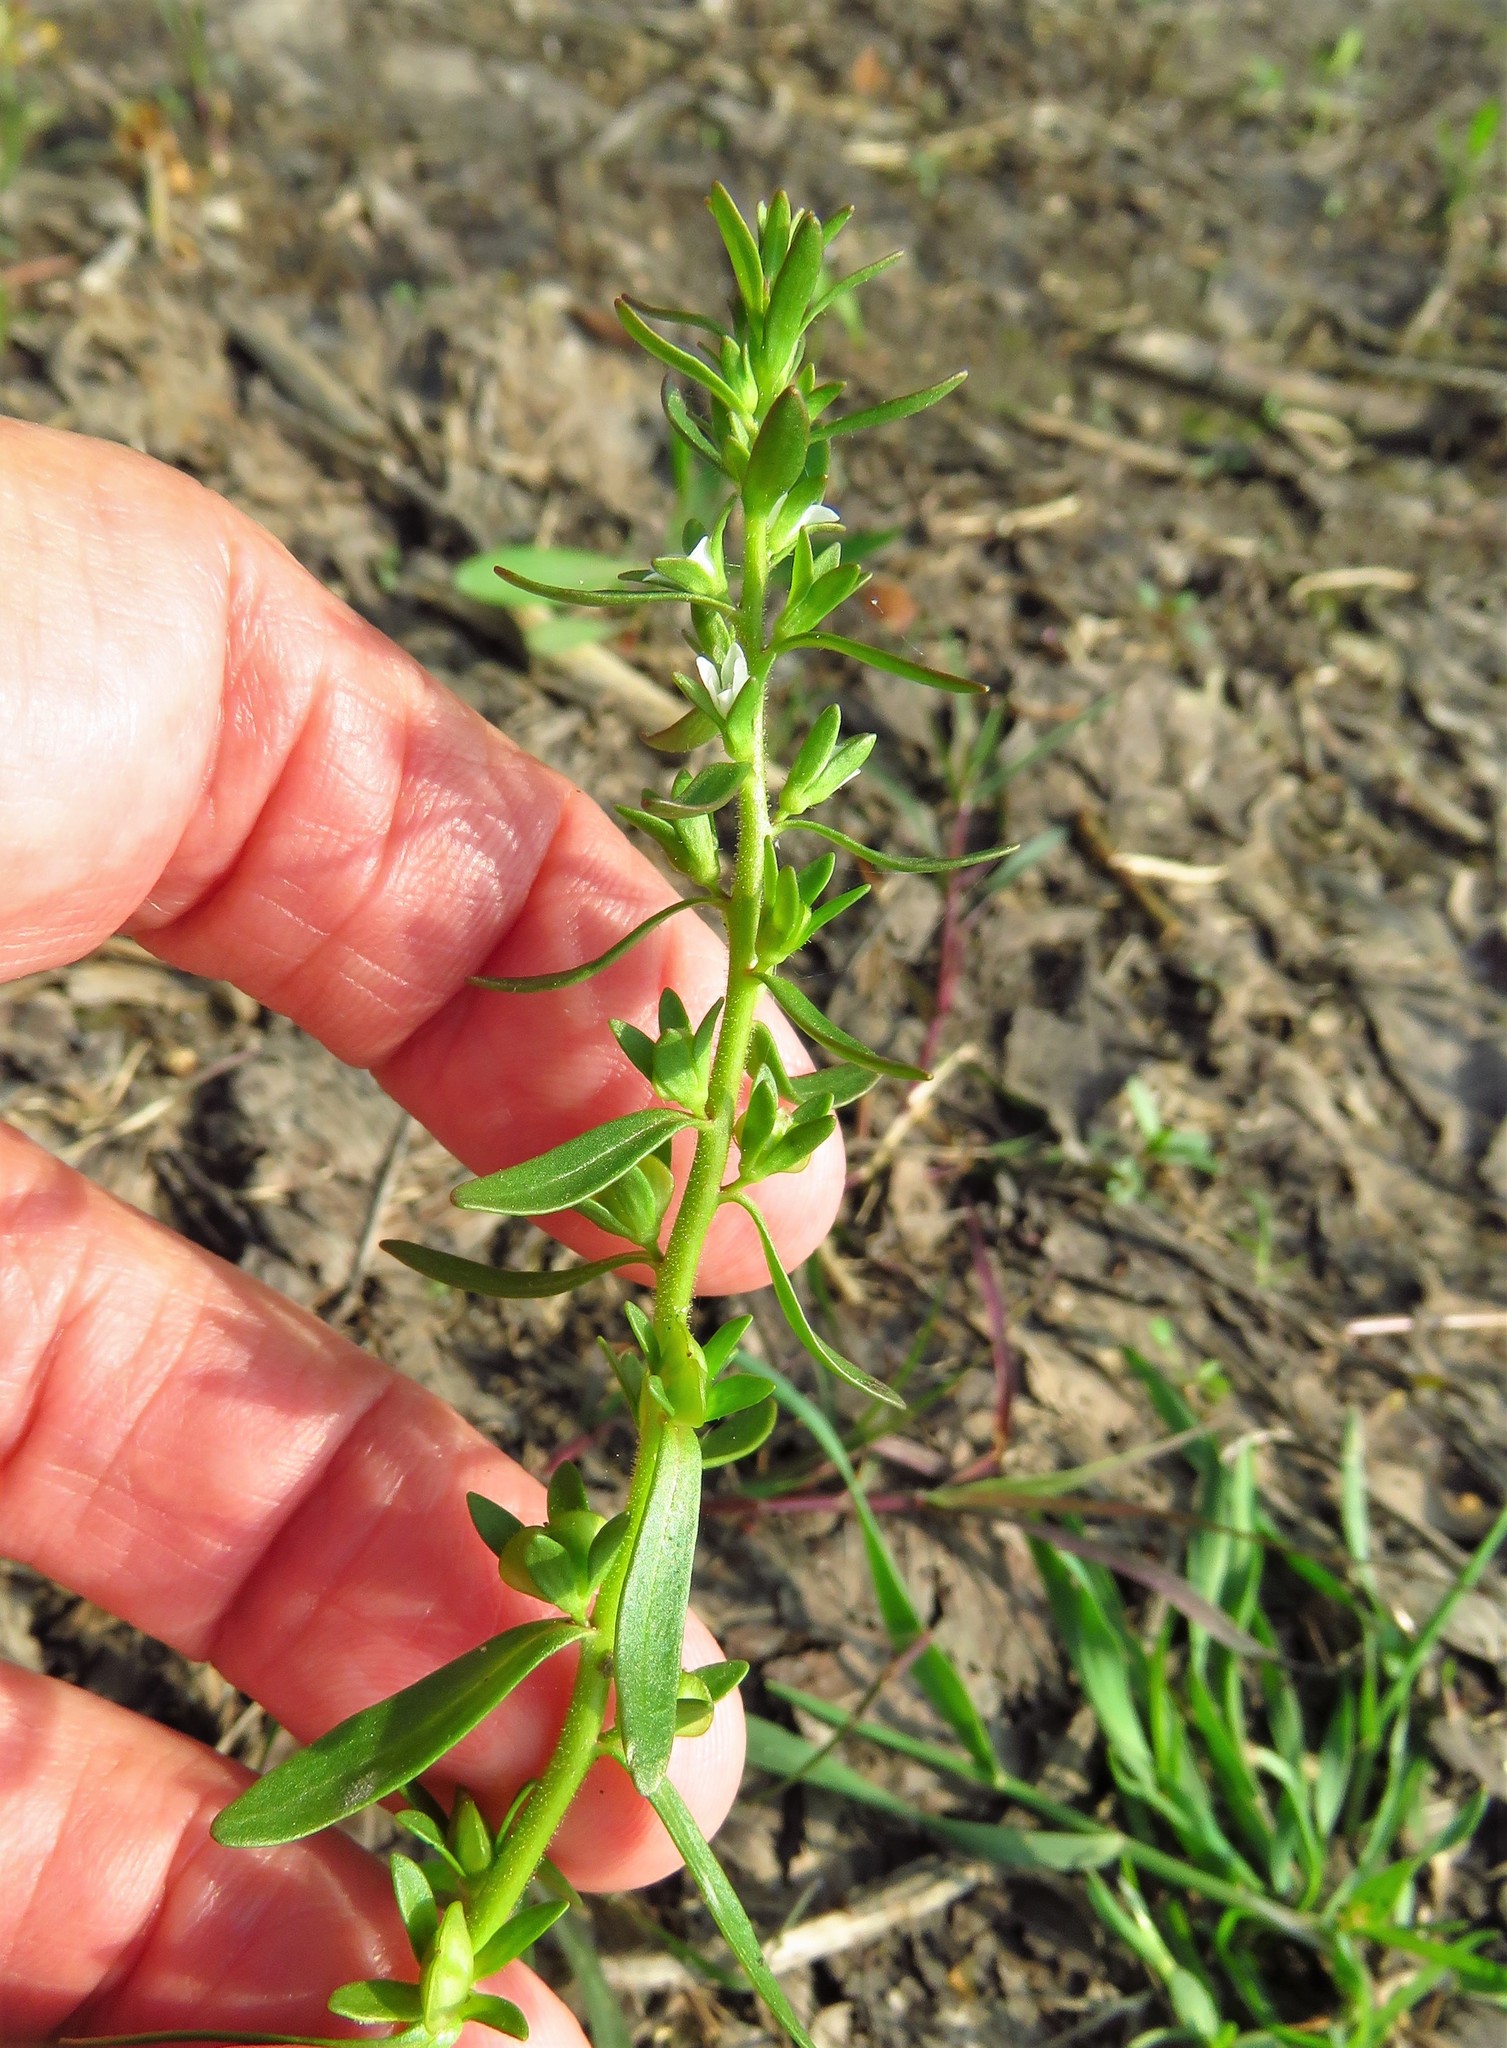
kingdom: Plantae
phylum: Tracheophyta
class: Magnoliopsida
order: Lamiales
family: Plantaginaceae
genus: Veronica
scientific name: Veronica peregrina
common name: Neckweed
